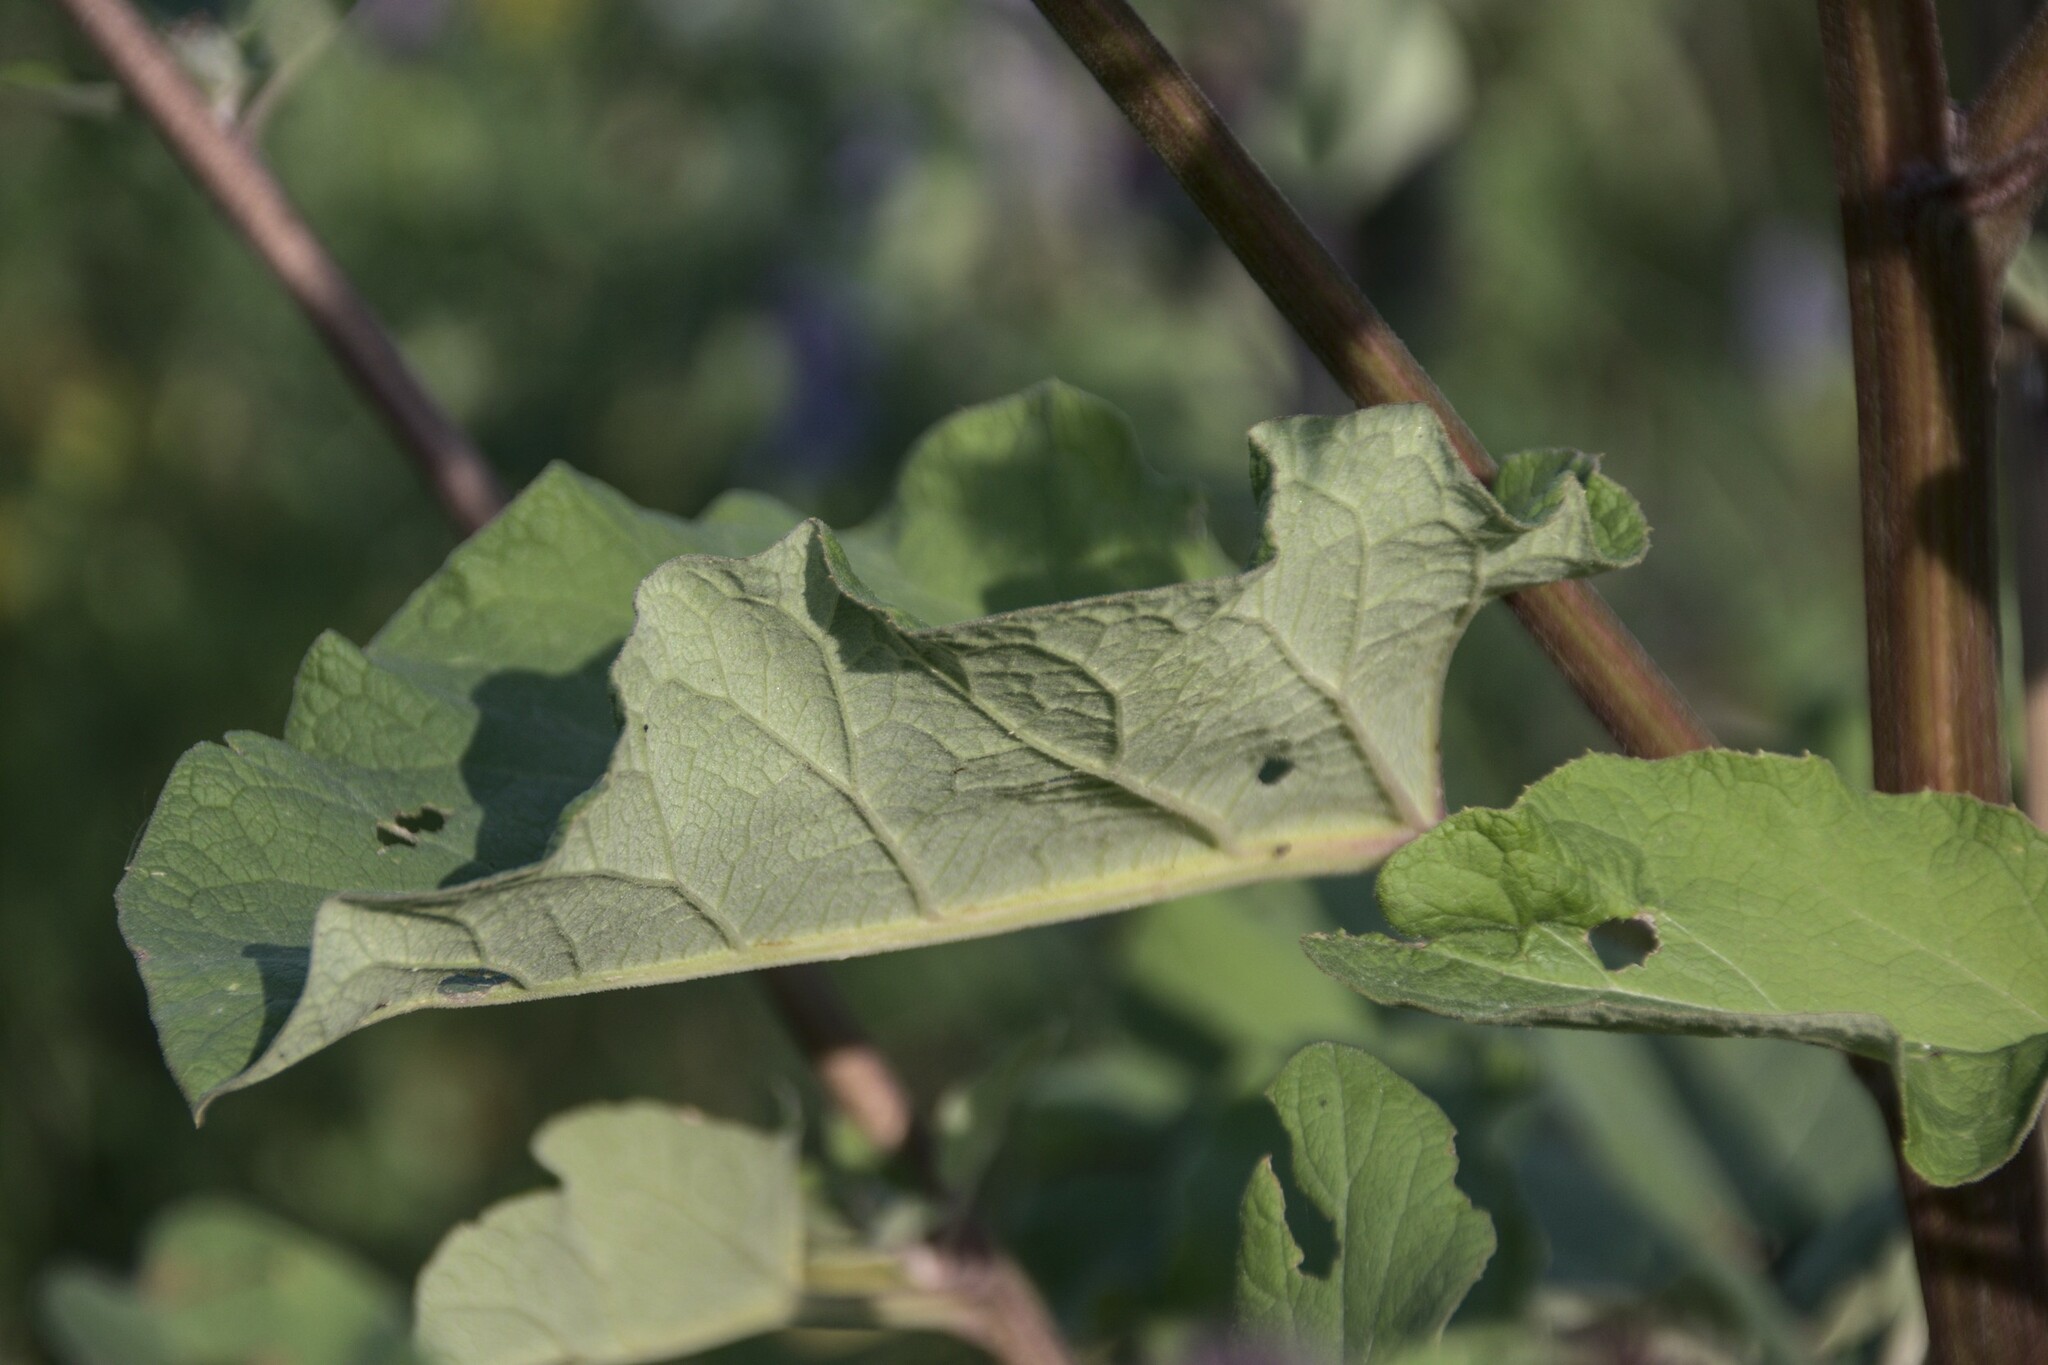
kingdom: Plantae
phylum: Tracheophyta
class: Magnoliopsida
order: Asterales
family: Asteraceae
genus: Arctium
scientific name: Arctium tomentosum
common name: Woolly burdock
